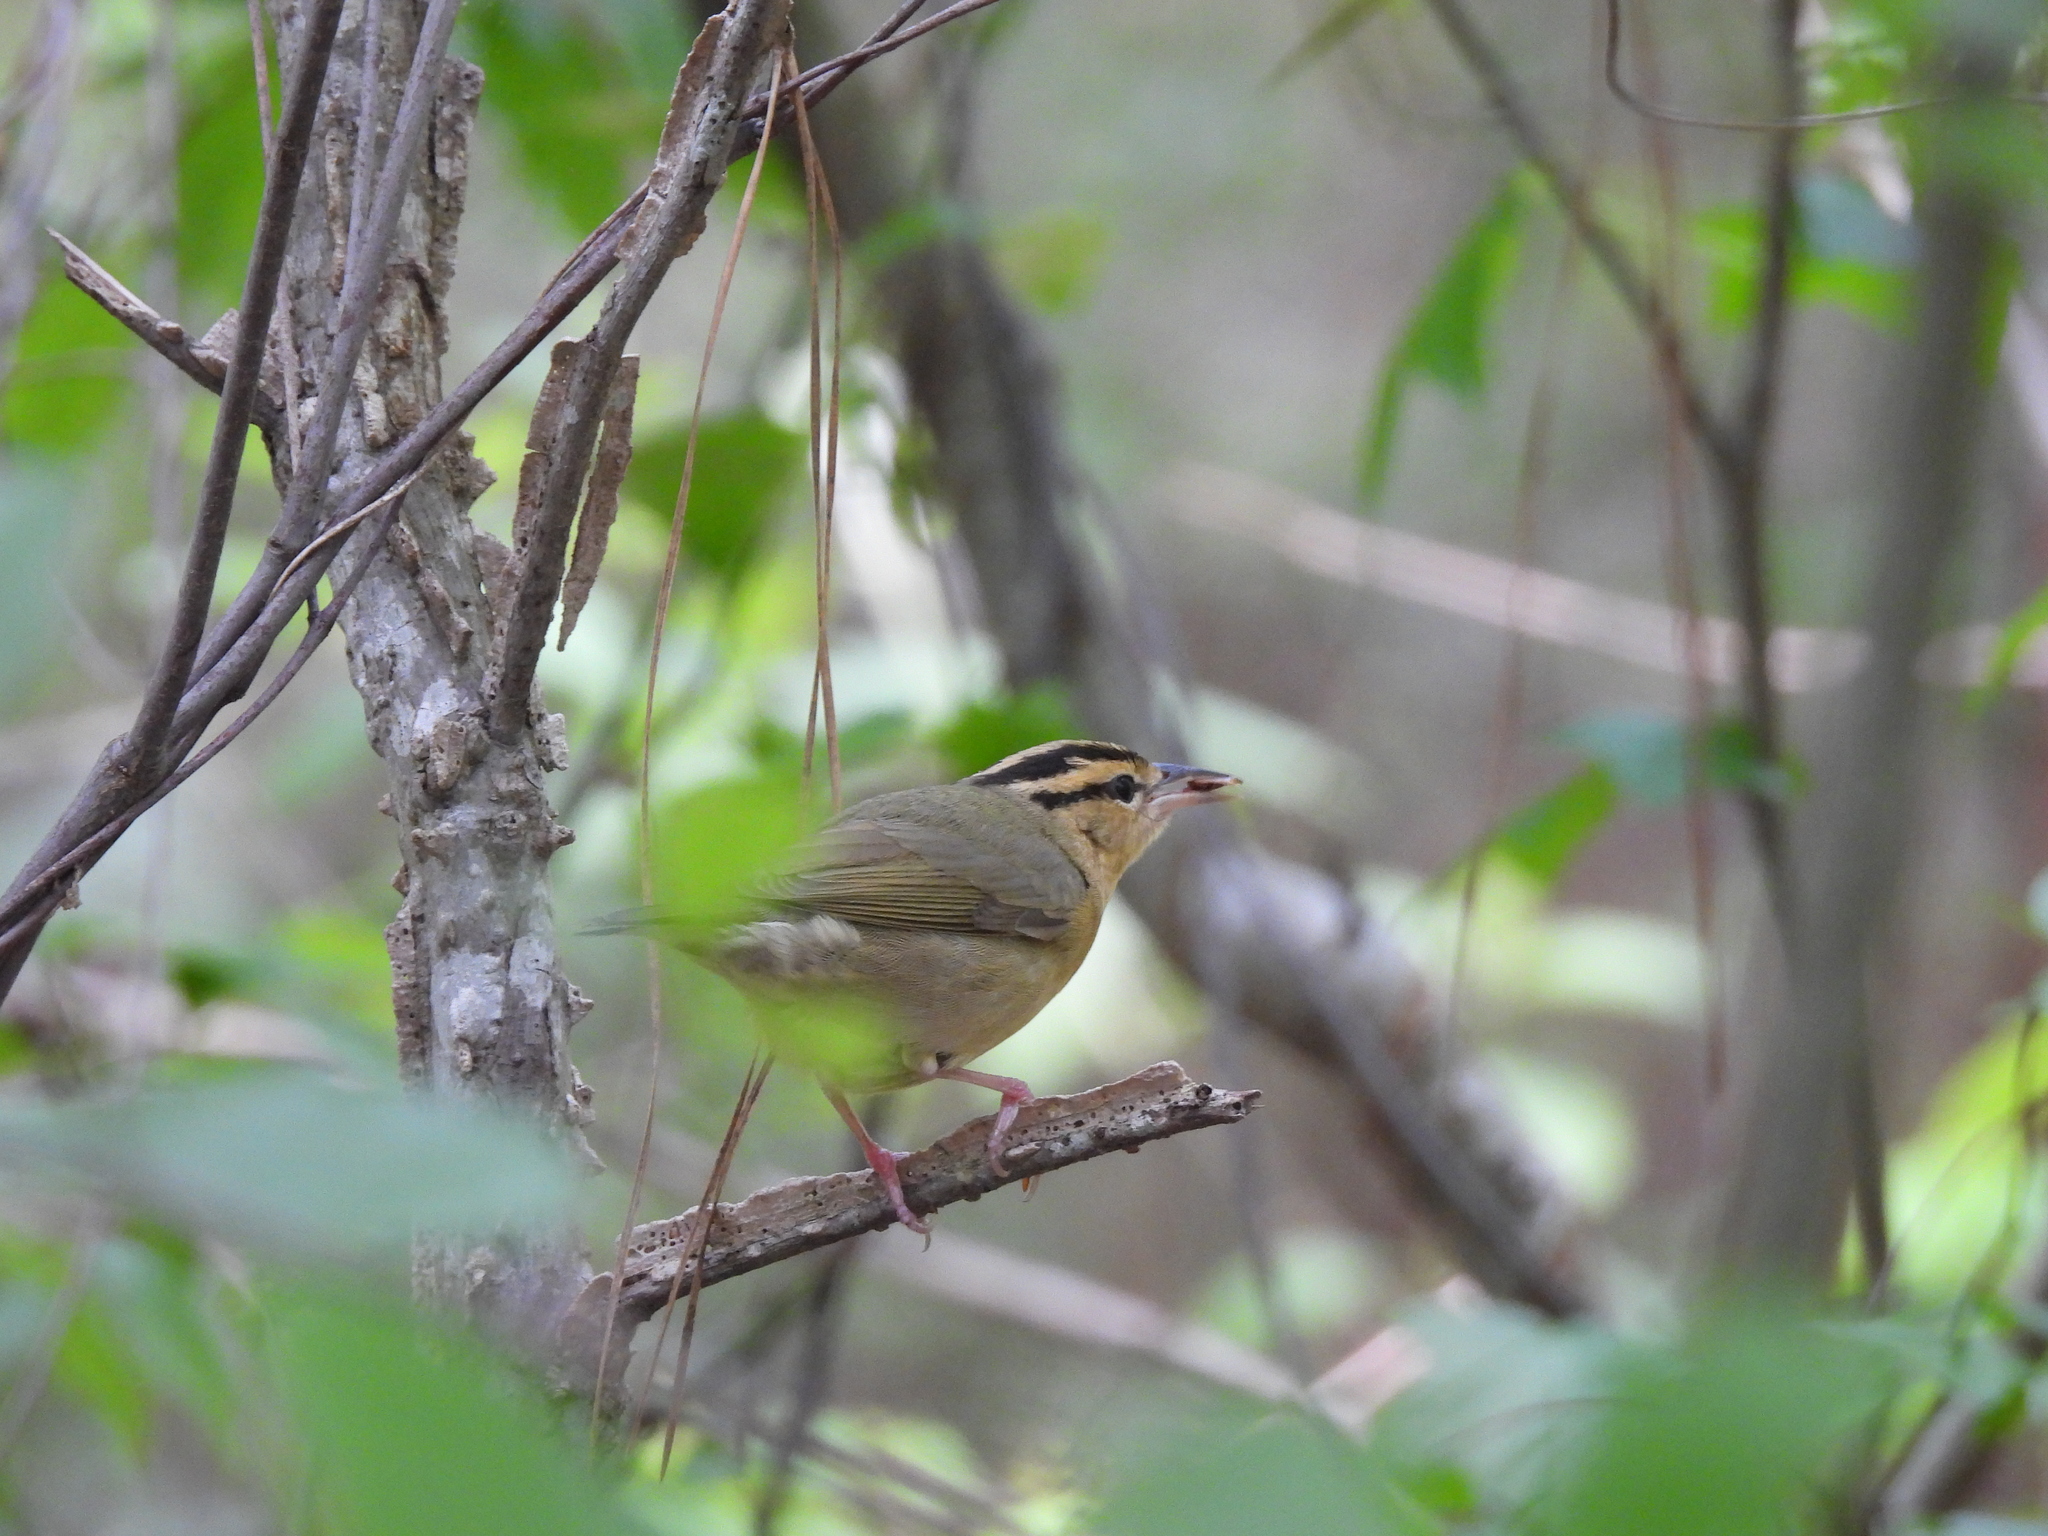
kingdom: Animalia
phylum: Chordata
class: Aves
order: Passeriformes
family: Parulidae
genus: Helmitheros
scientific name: Helmitheros vermivorum
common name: Worm-eating warbler
